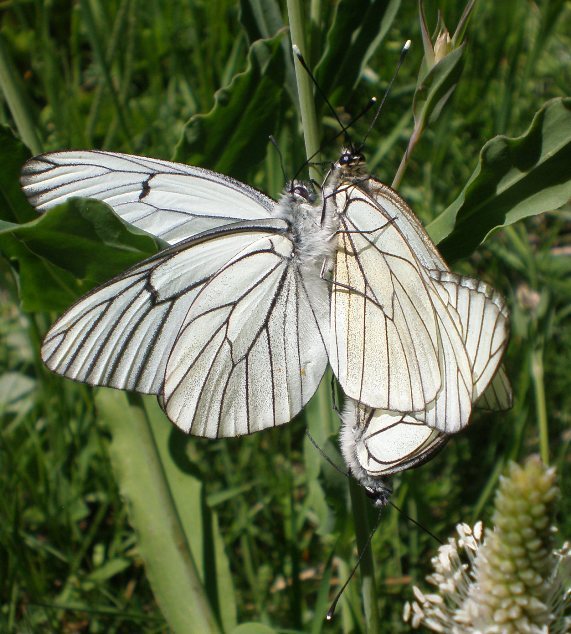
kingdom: Animalia
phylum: Arthropoda
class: Insecta
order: Lepidoptera
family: Pieridae
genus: Aporia
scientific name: Aporia crataegi
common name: Black-veined white
